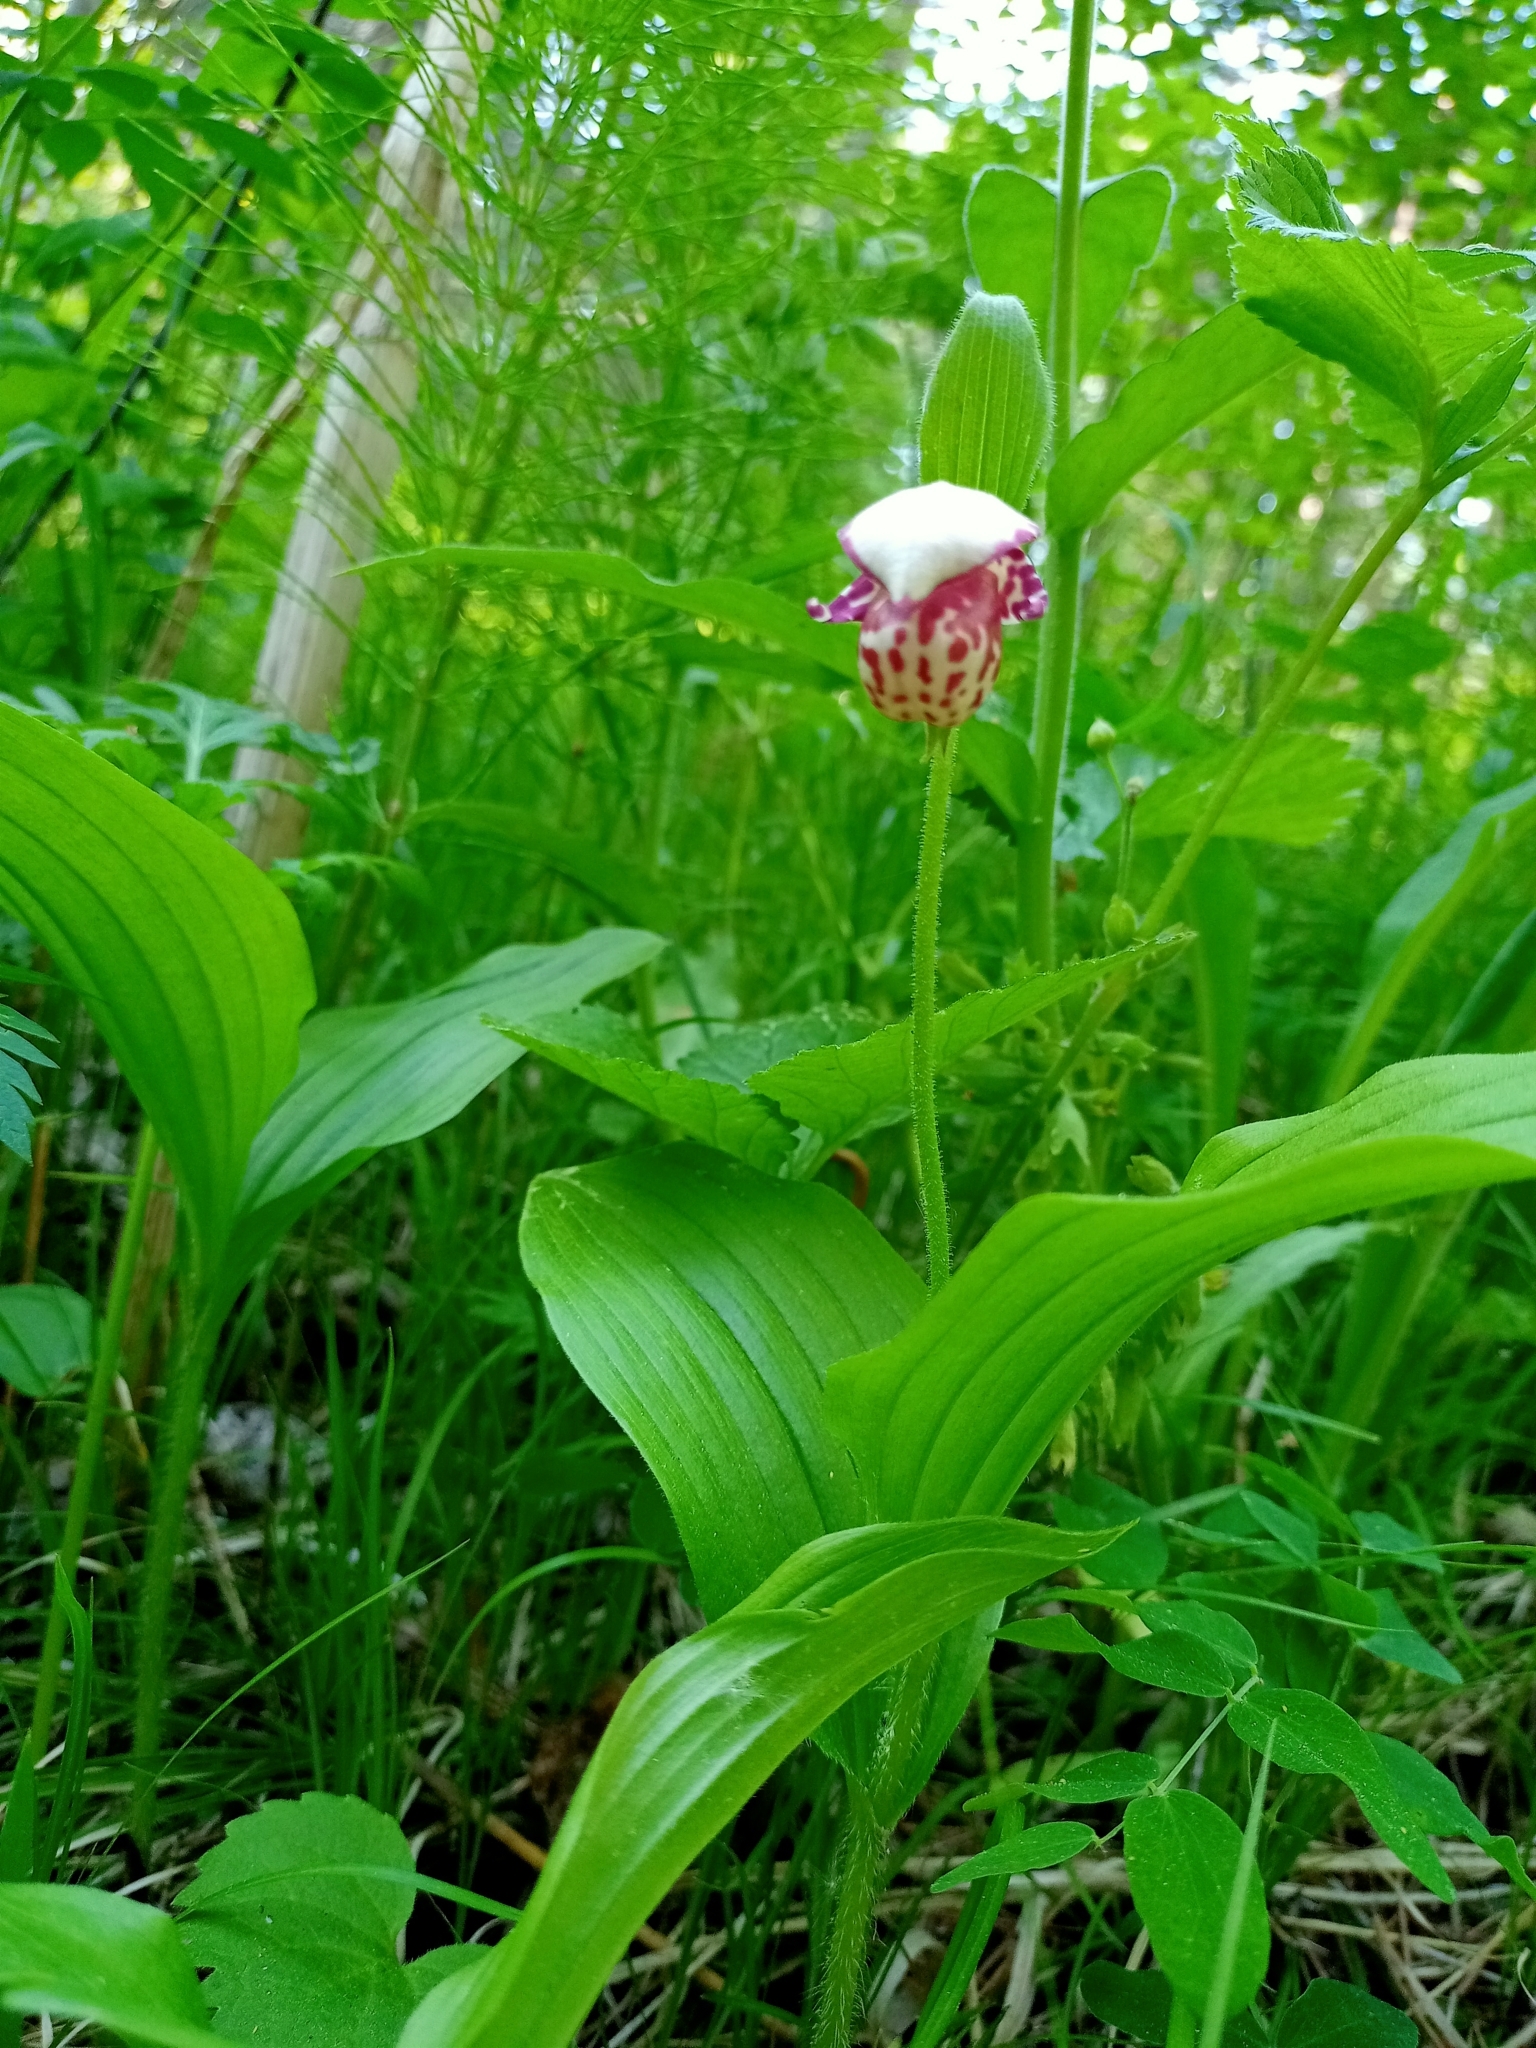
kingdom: Plantae
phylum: Tracheophyta
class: Liliopsida
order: Asparagales
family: Orchidaceae
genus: Cypripedium
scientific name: Cypripedium guttatum
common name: Pink lady slipper
